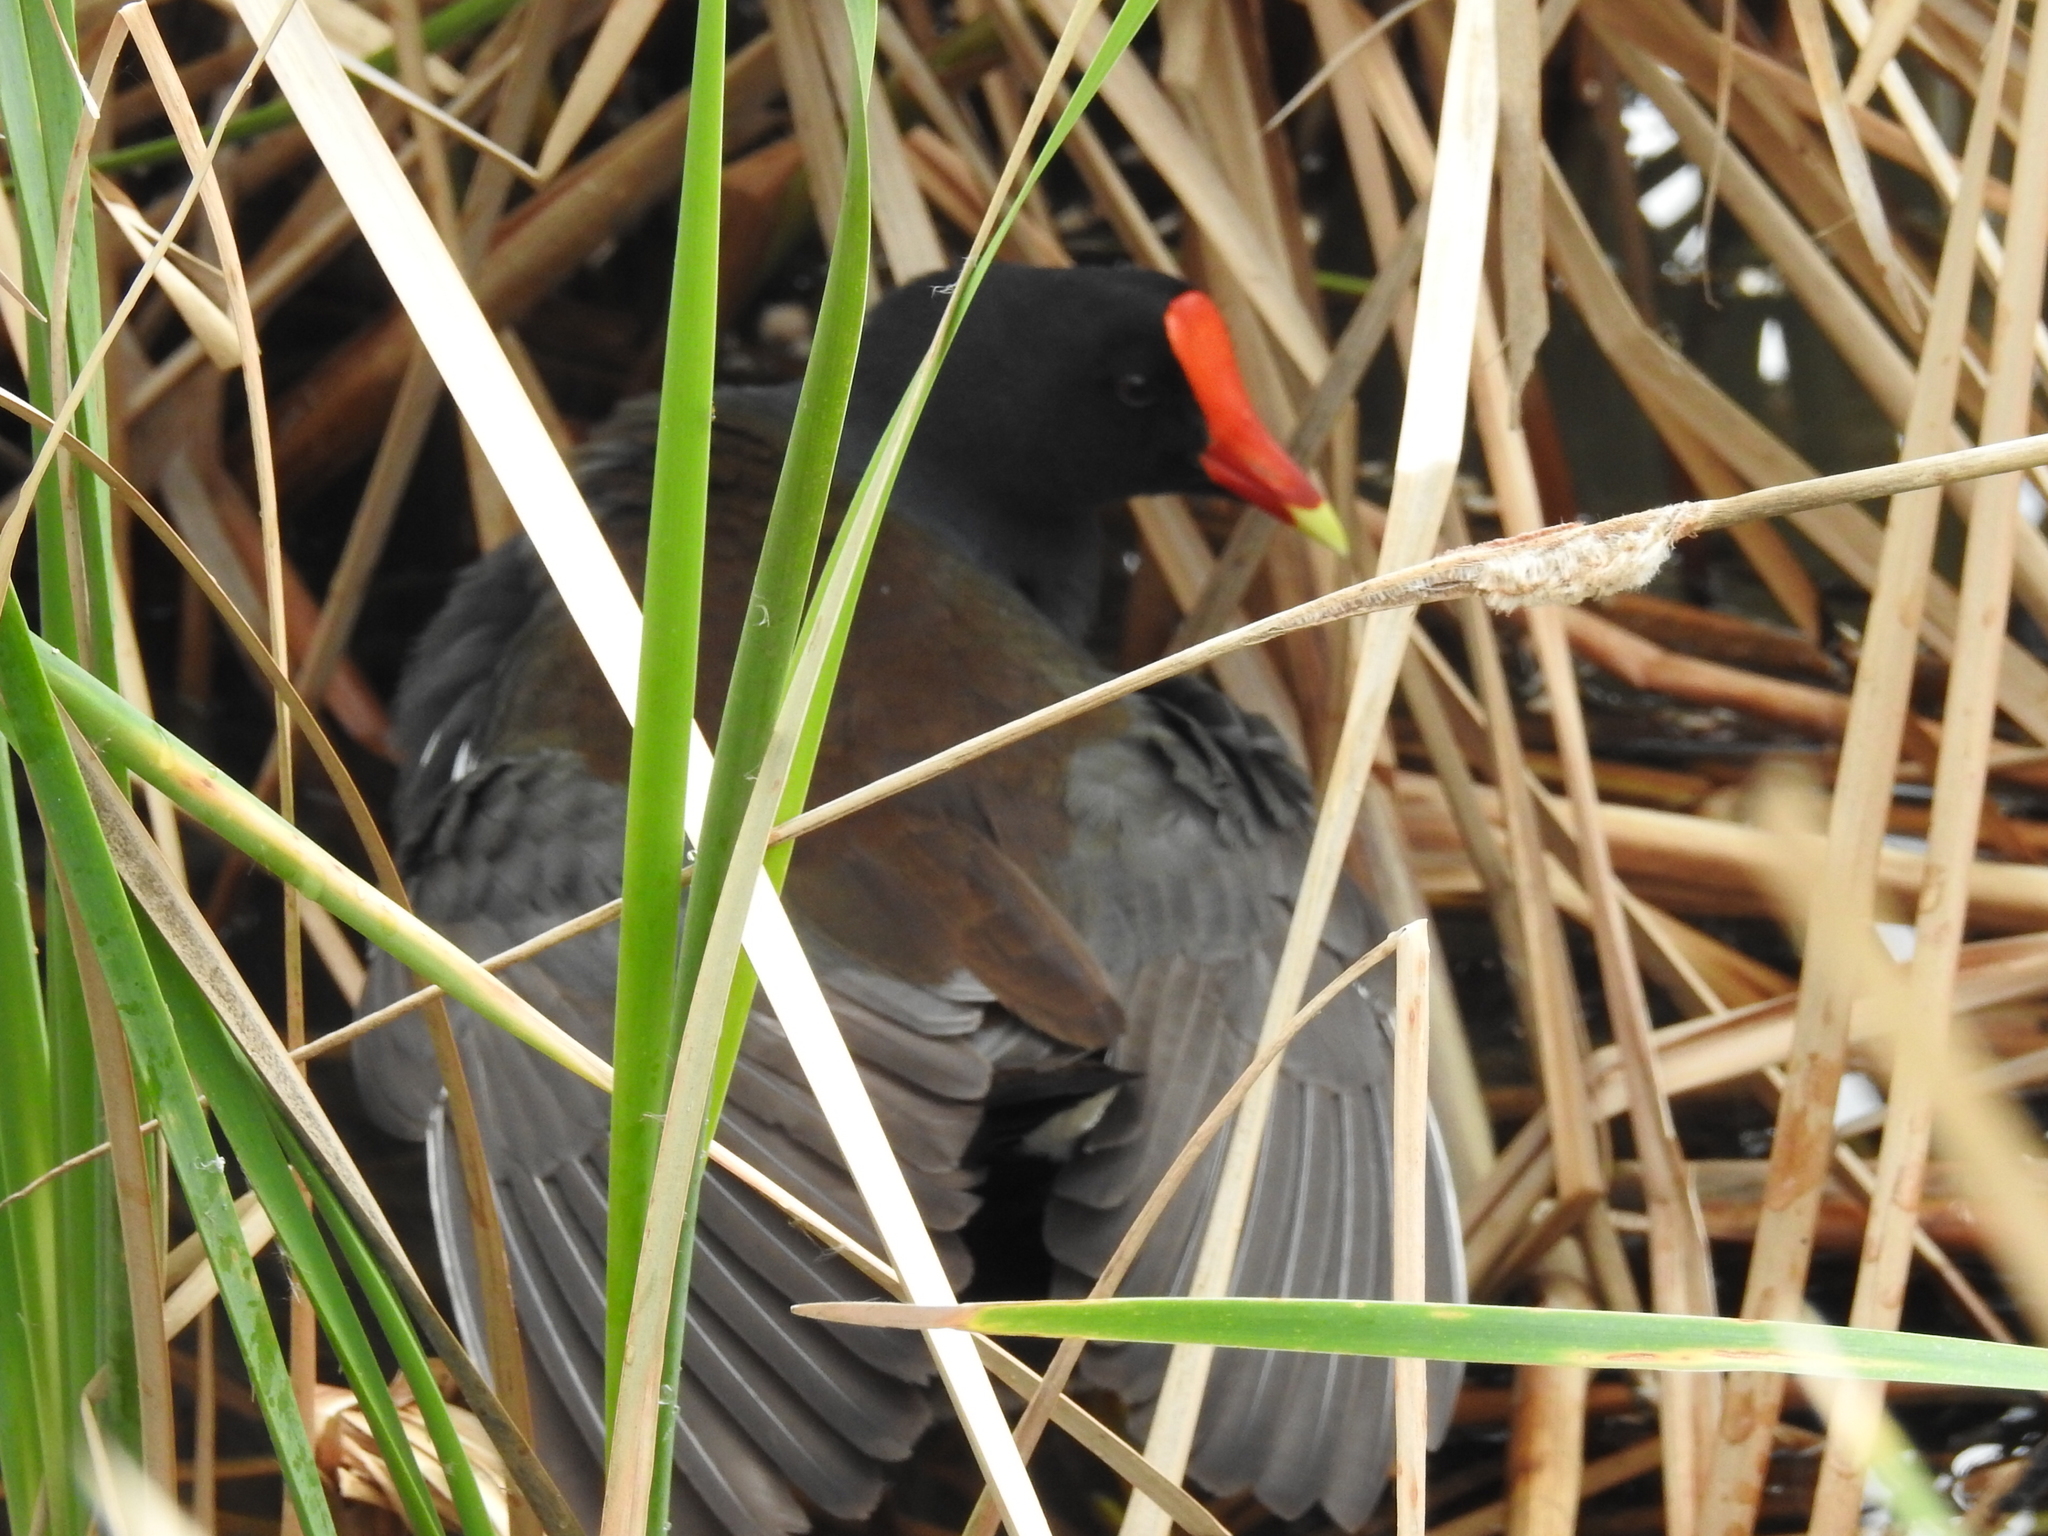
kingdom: Animalia
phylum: Chordata
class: Aves
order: Gruiformes
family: Rallidae
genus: Gallinula
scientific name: Gallinula chloropus
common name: Common moorhen
